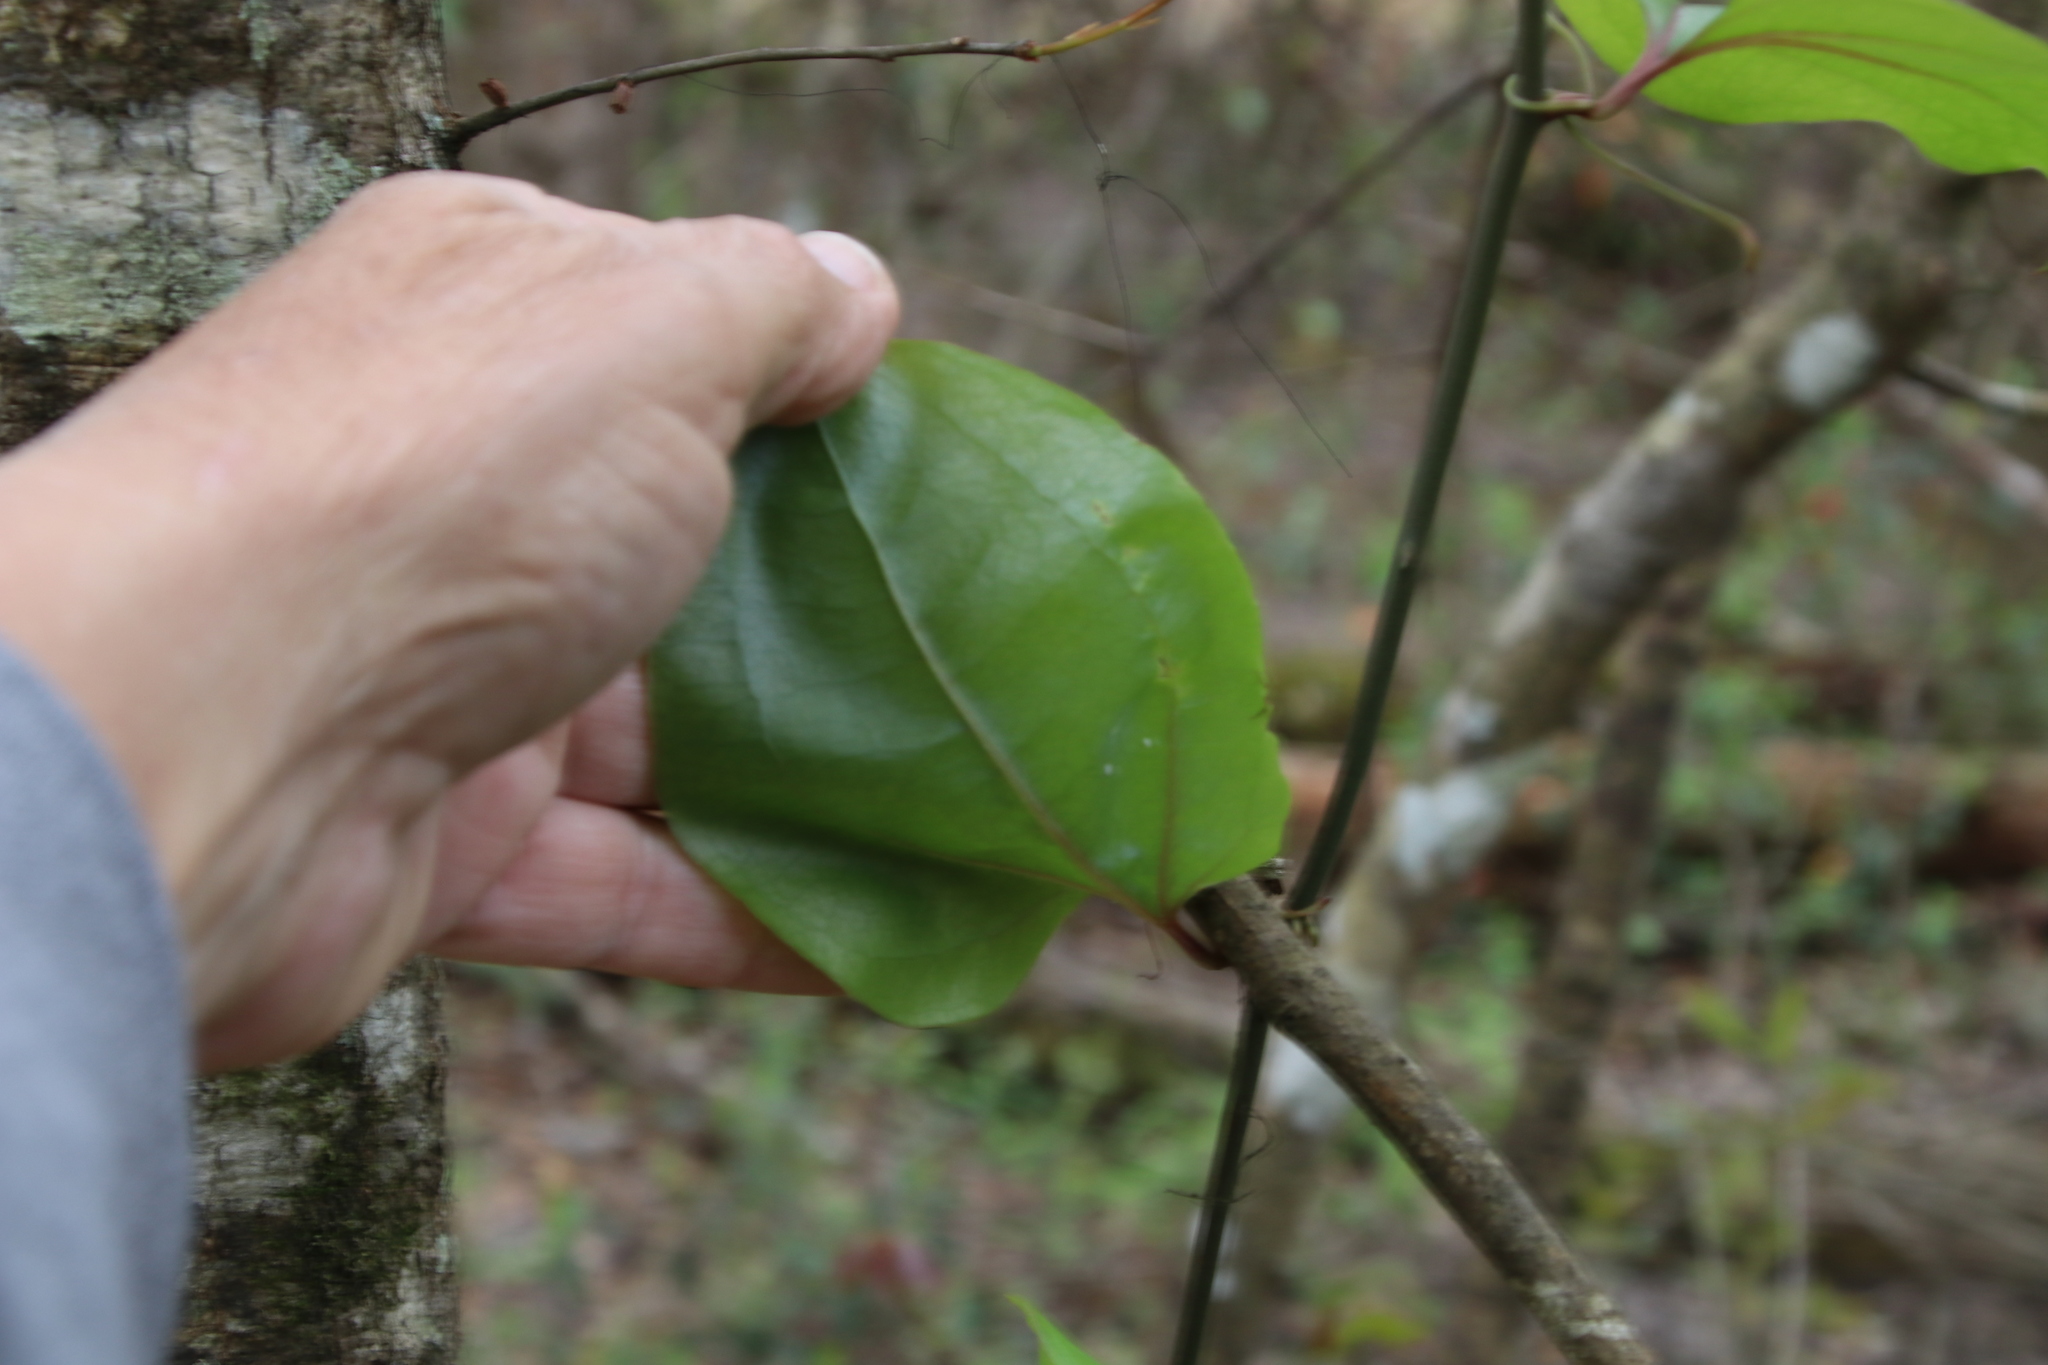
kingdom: Plantae
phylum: Tracheophyta
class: Liliopsida
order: Liliales
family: Smilacaceae
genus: Smilax
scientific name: Smilax rotundifolia
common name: Bullbriar
